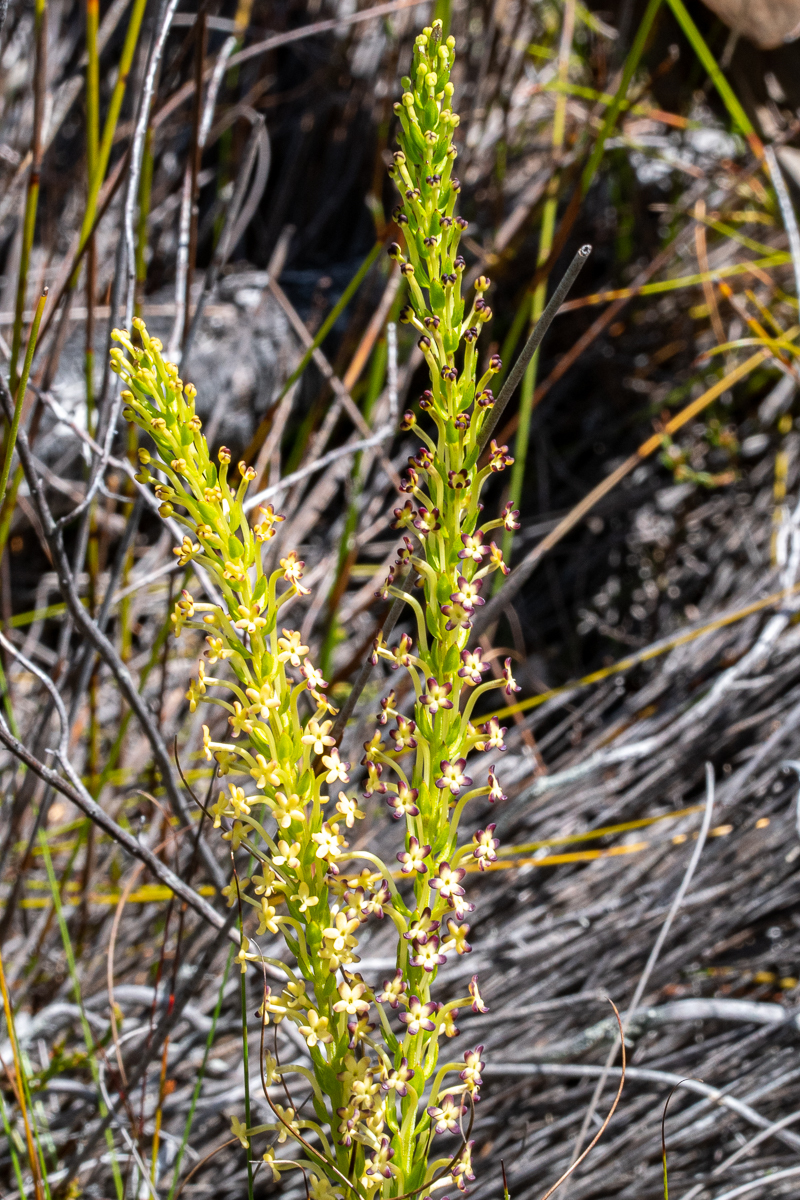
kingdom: Plantae
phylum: Tracheophyta
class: Magnoliopsida
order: Lamiales
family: Scrophulariaceae
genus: Microdon
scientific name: Microdon dubius
